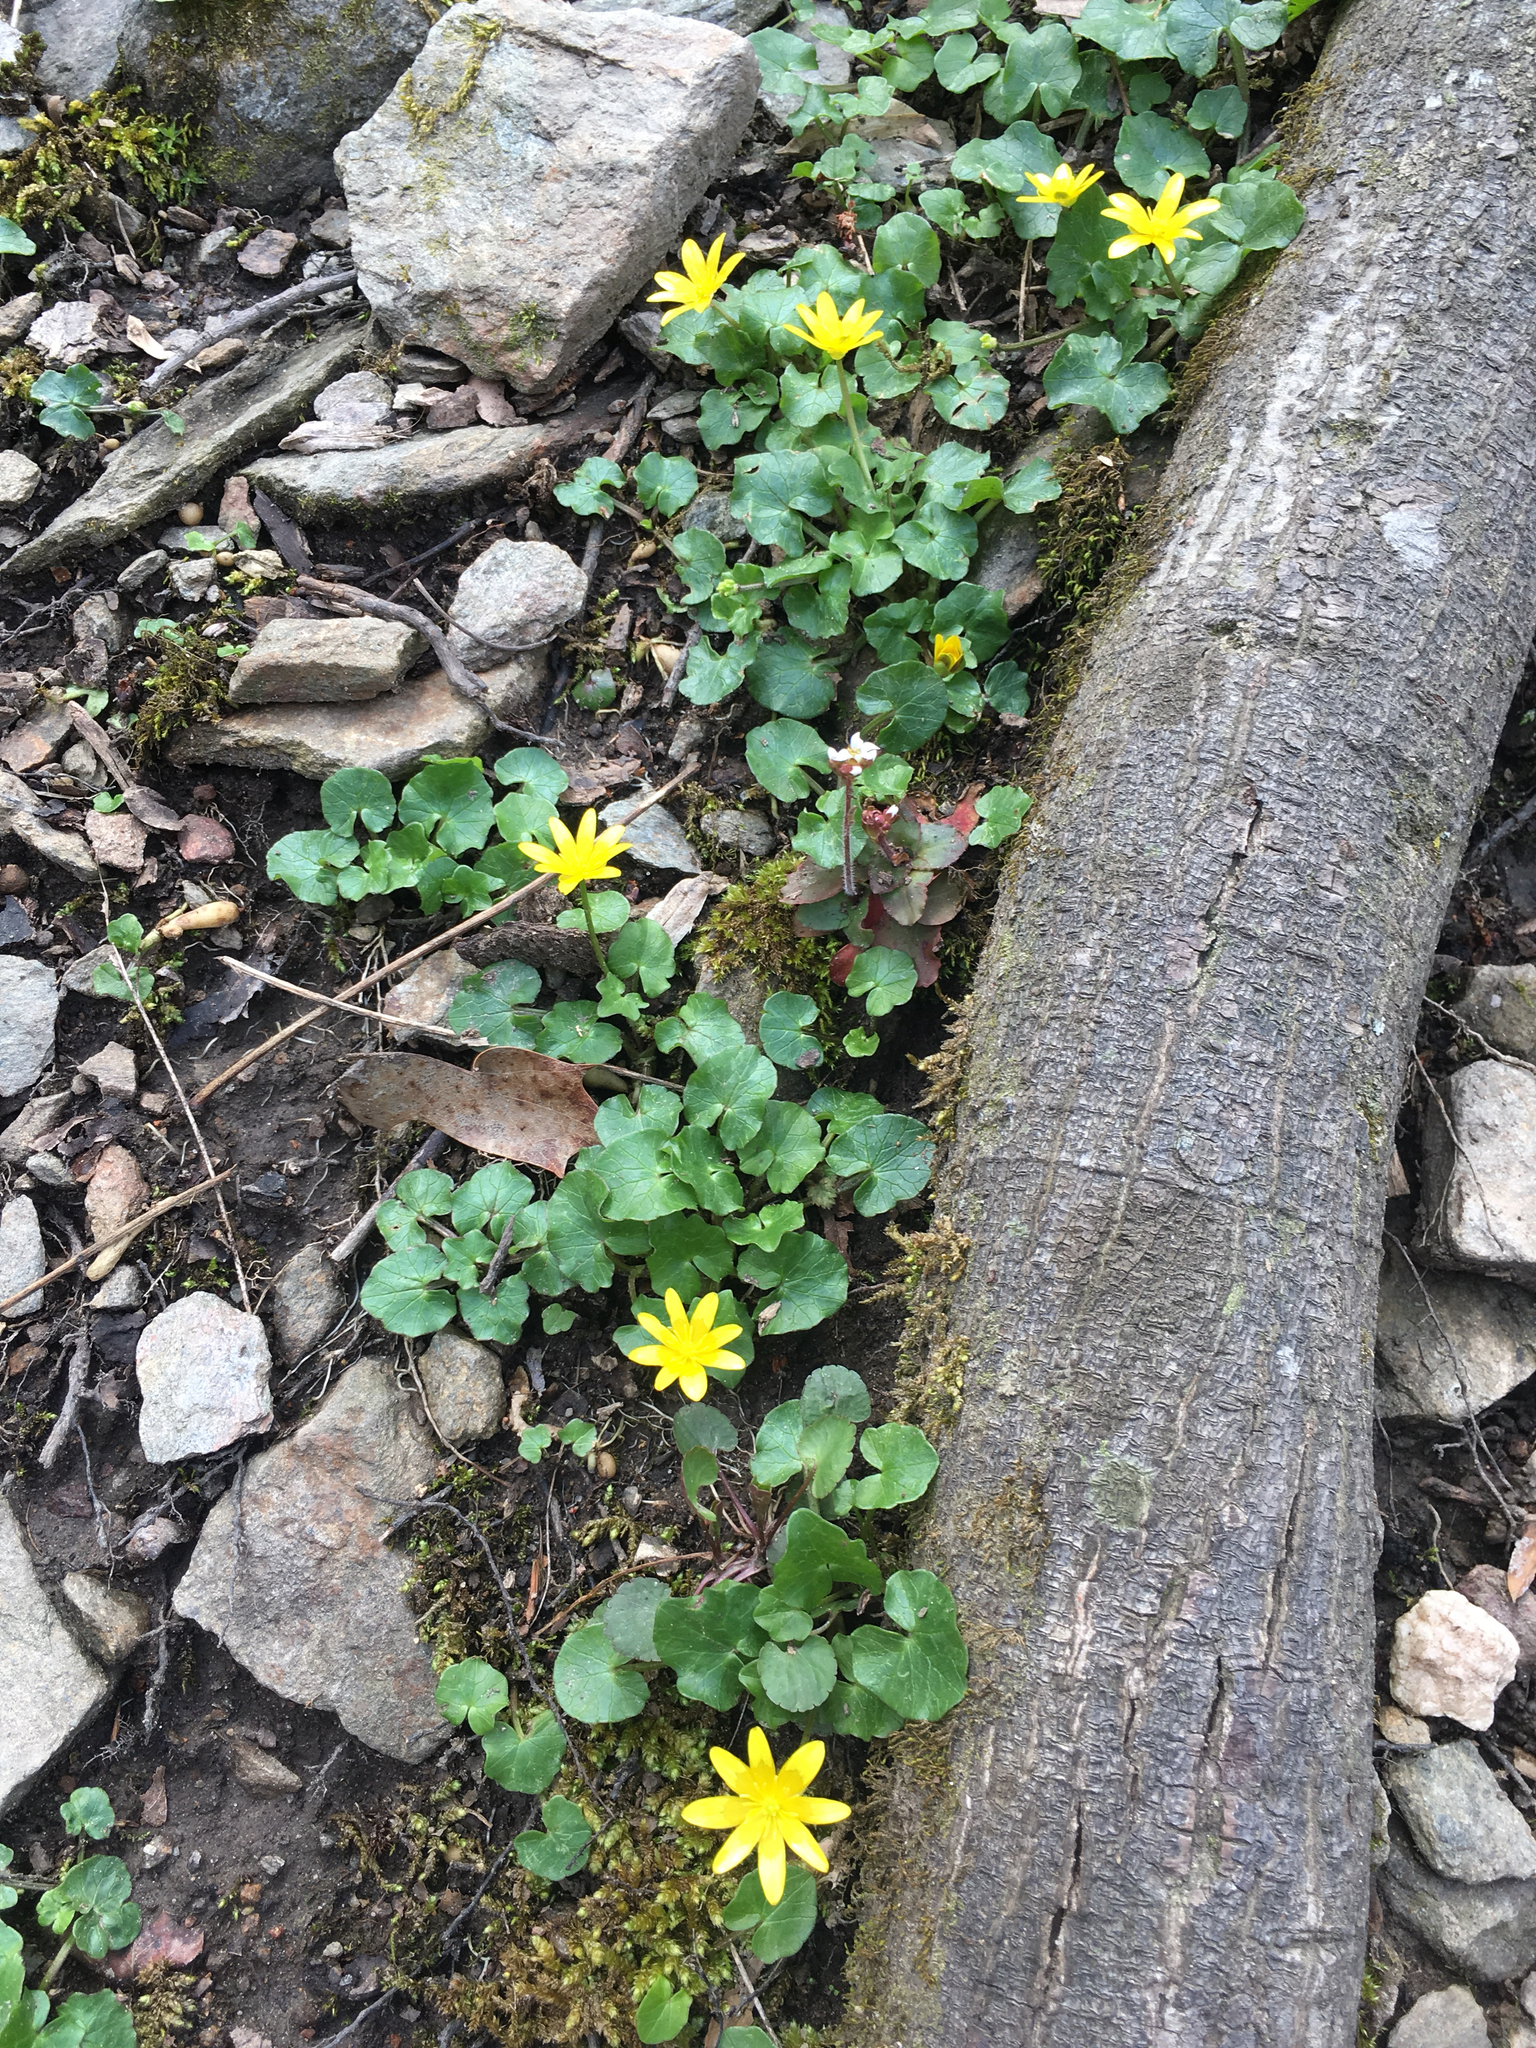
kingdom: Plantae
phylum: Tracheophyta
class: Magnoliopsida
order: Ranunculales
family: Ranunculaceae
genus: Ficaria
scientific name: Ficaria verna
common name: Lesser celandine
